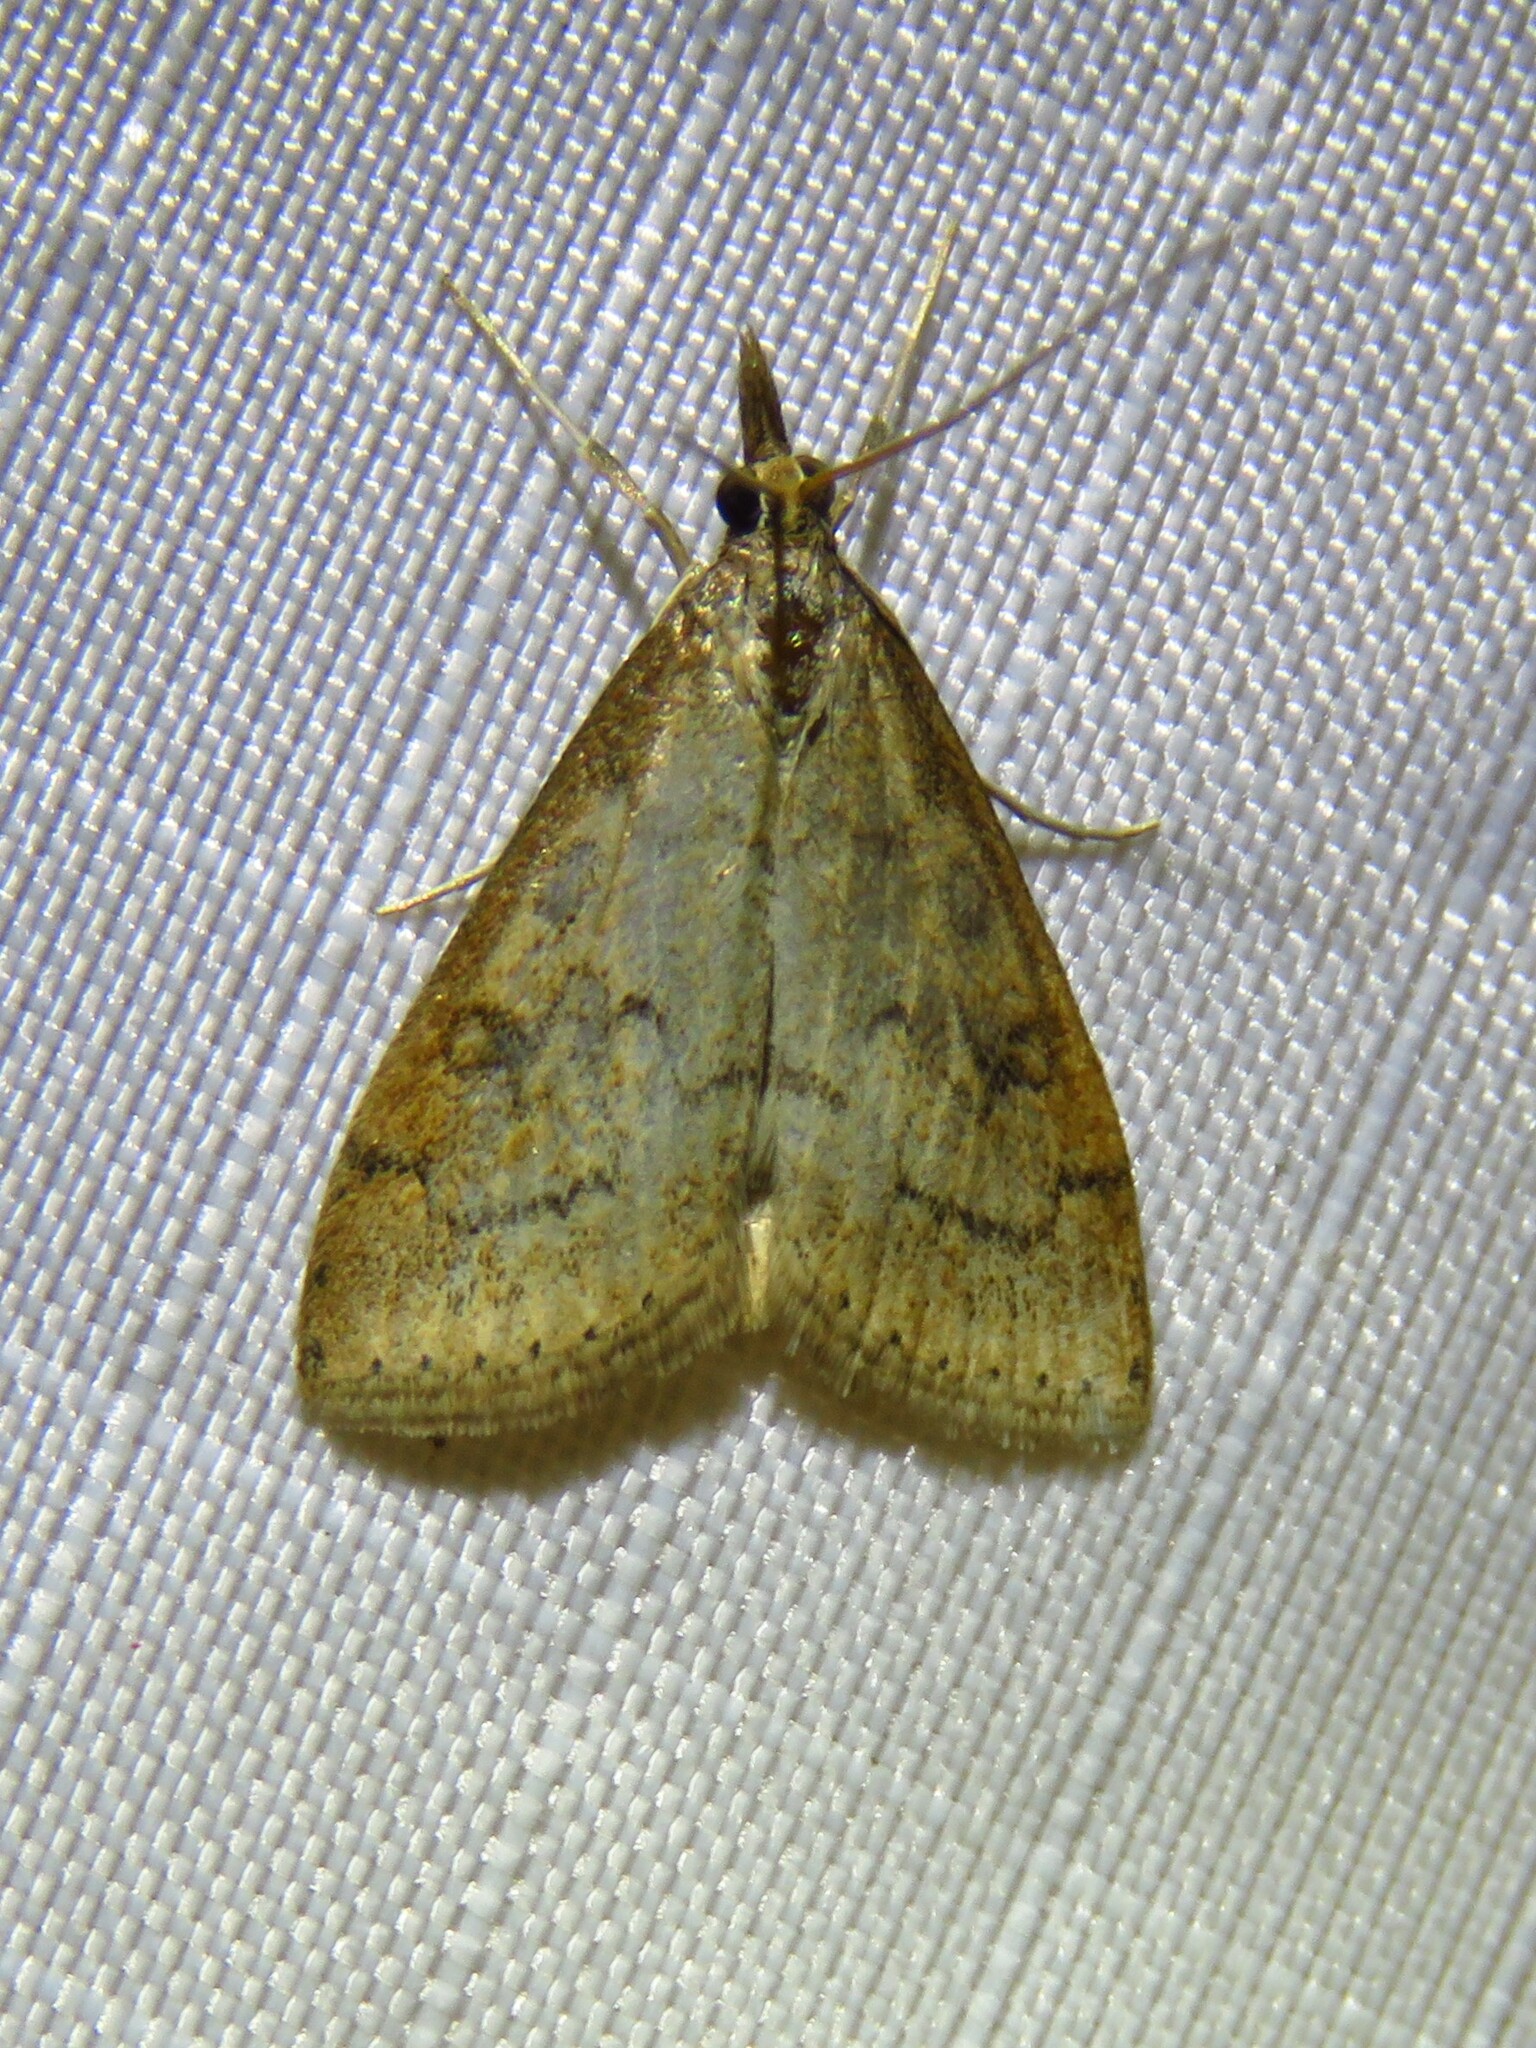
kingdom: Animalia
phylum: Arthropoda
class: Insecta
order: Lepidoptera
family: Crambidae
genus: Udea
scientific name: Udea rubigalis
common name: Celery leaftier moth
